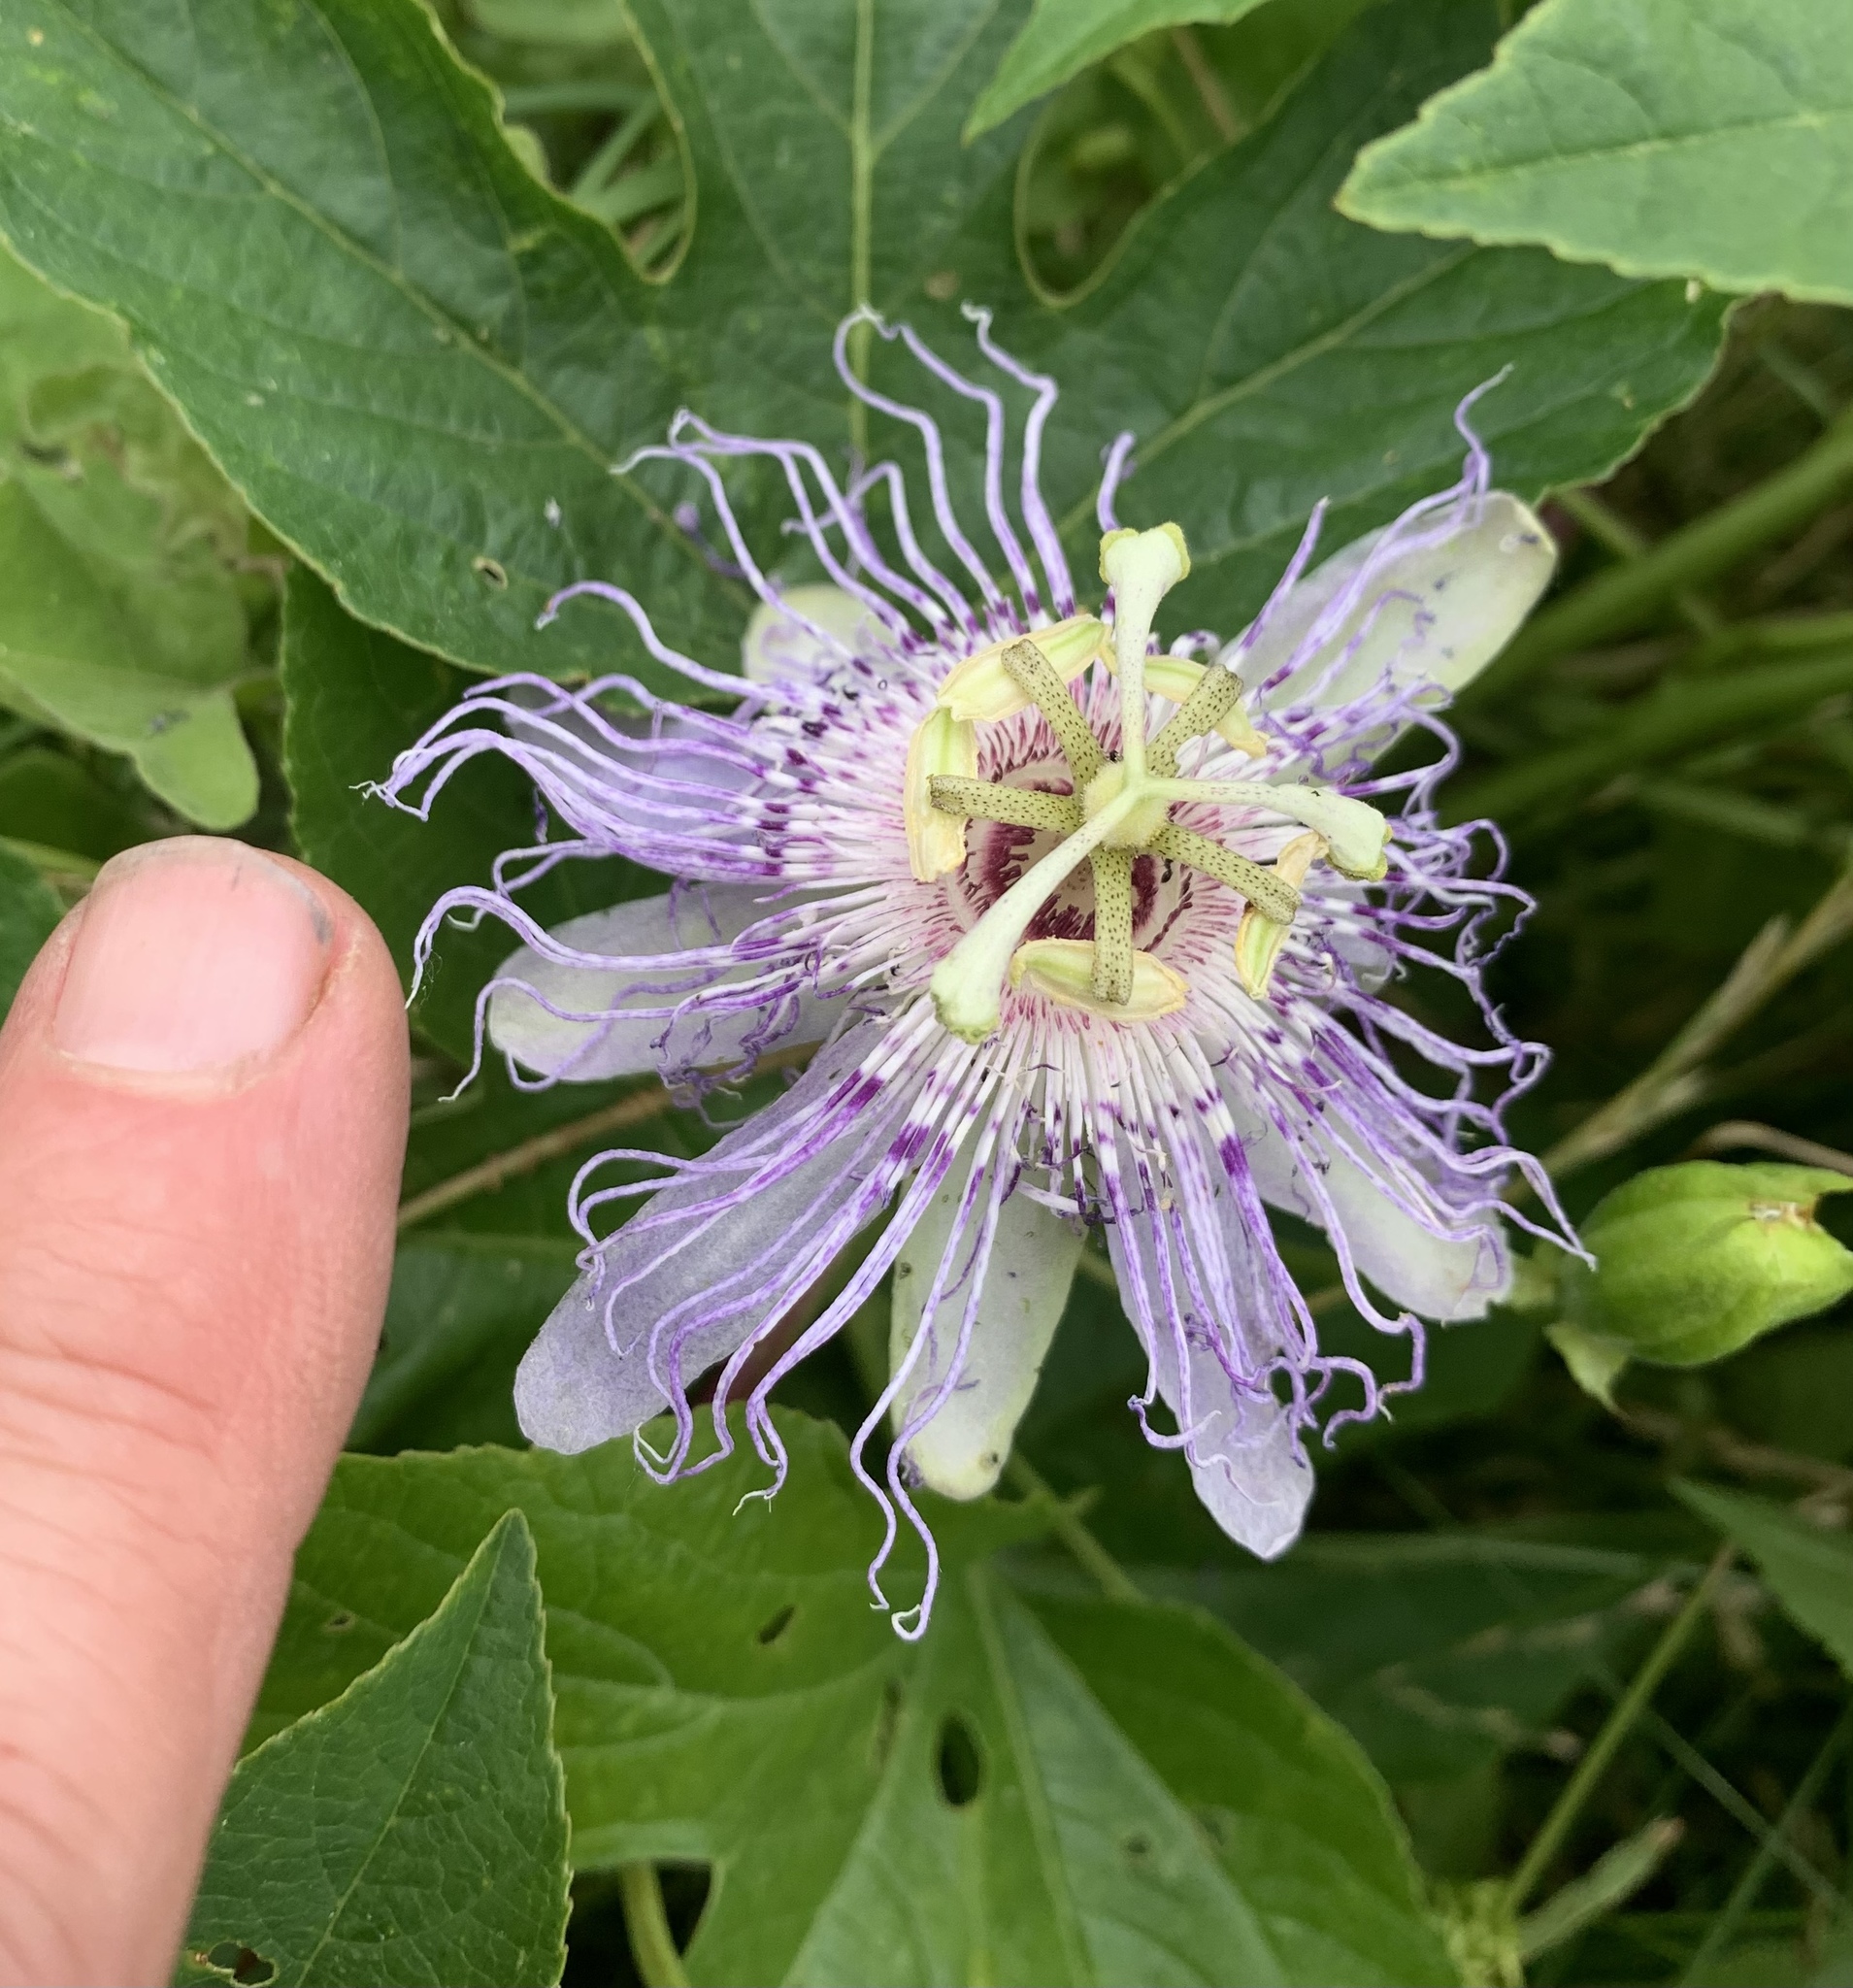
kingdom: Plantae
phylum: Tracheophyta
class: Magnoliopsida
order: Malpighiales
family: Passifloraceae
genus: Passiflora
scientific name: Passiflora incarnata
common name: Apricot-vine
